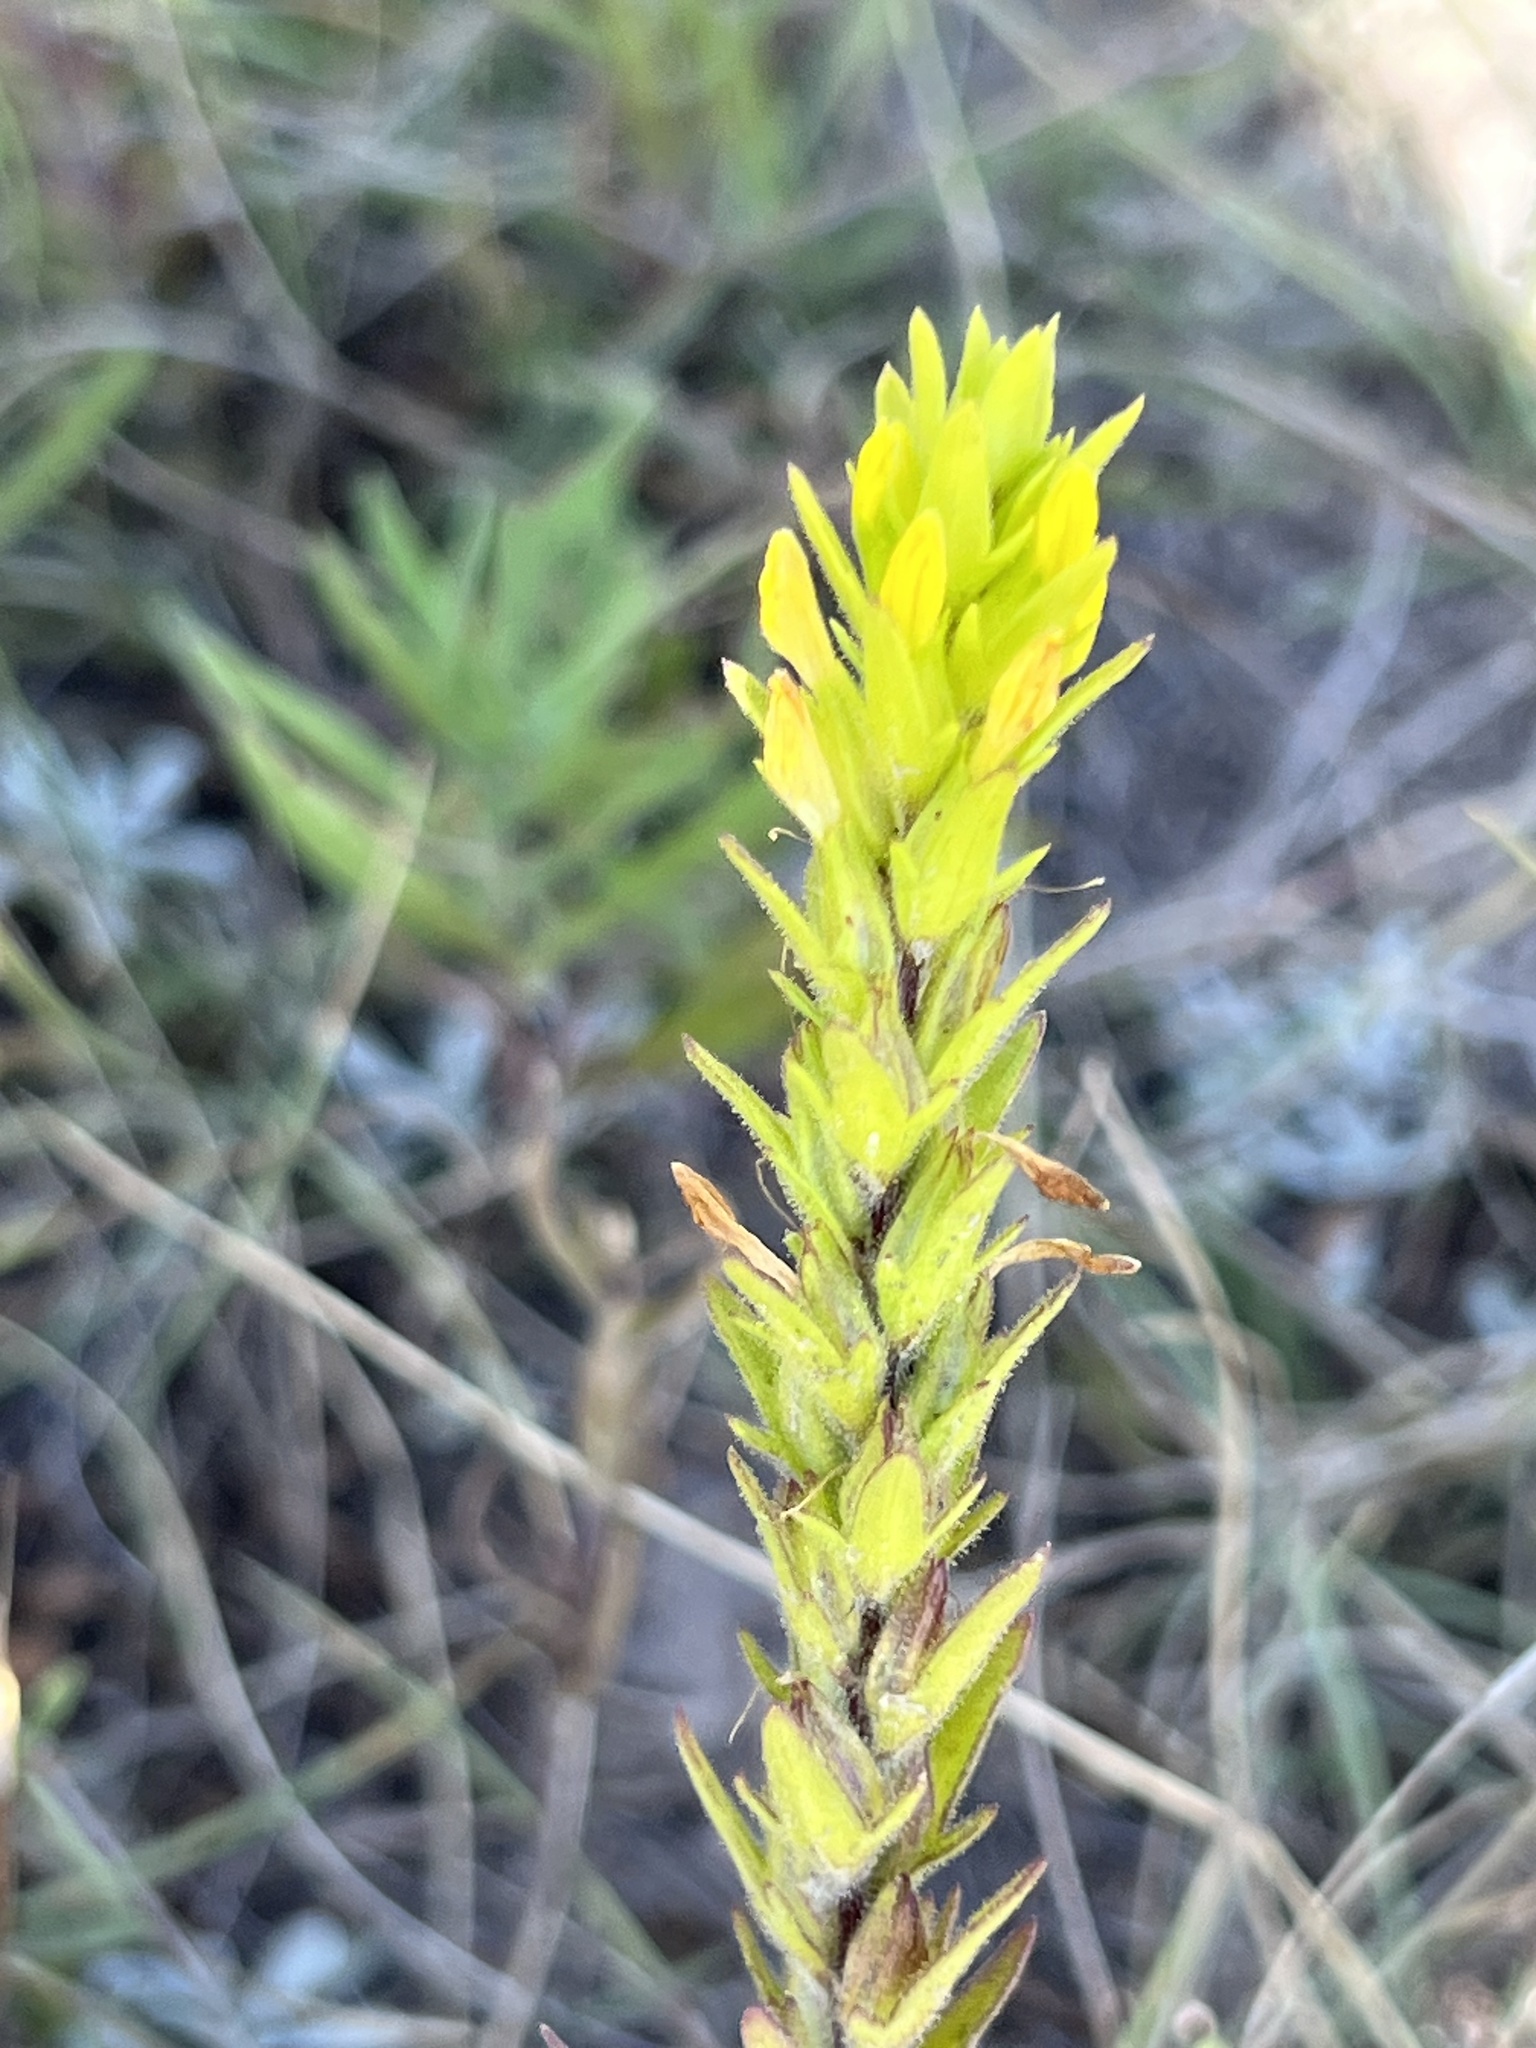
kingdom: Plantae
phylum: Tracheophyta
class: Magnoliopsida
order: Lamiales
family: Orobanchaceae
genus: Orthocarpus
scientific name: Orthocarpus luteus
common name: Golden-tongue owl's-clover
